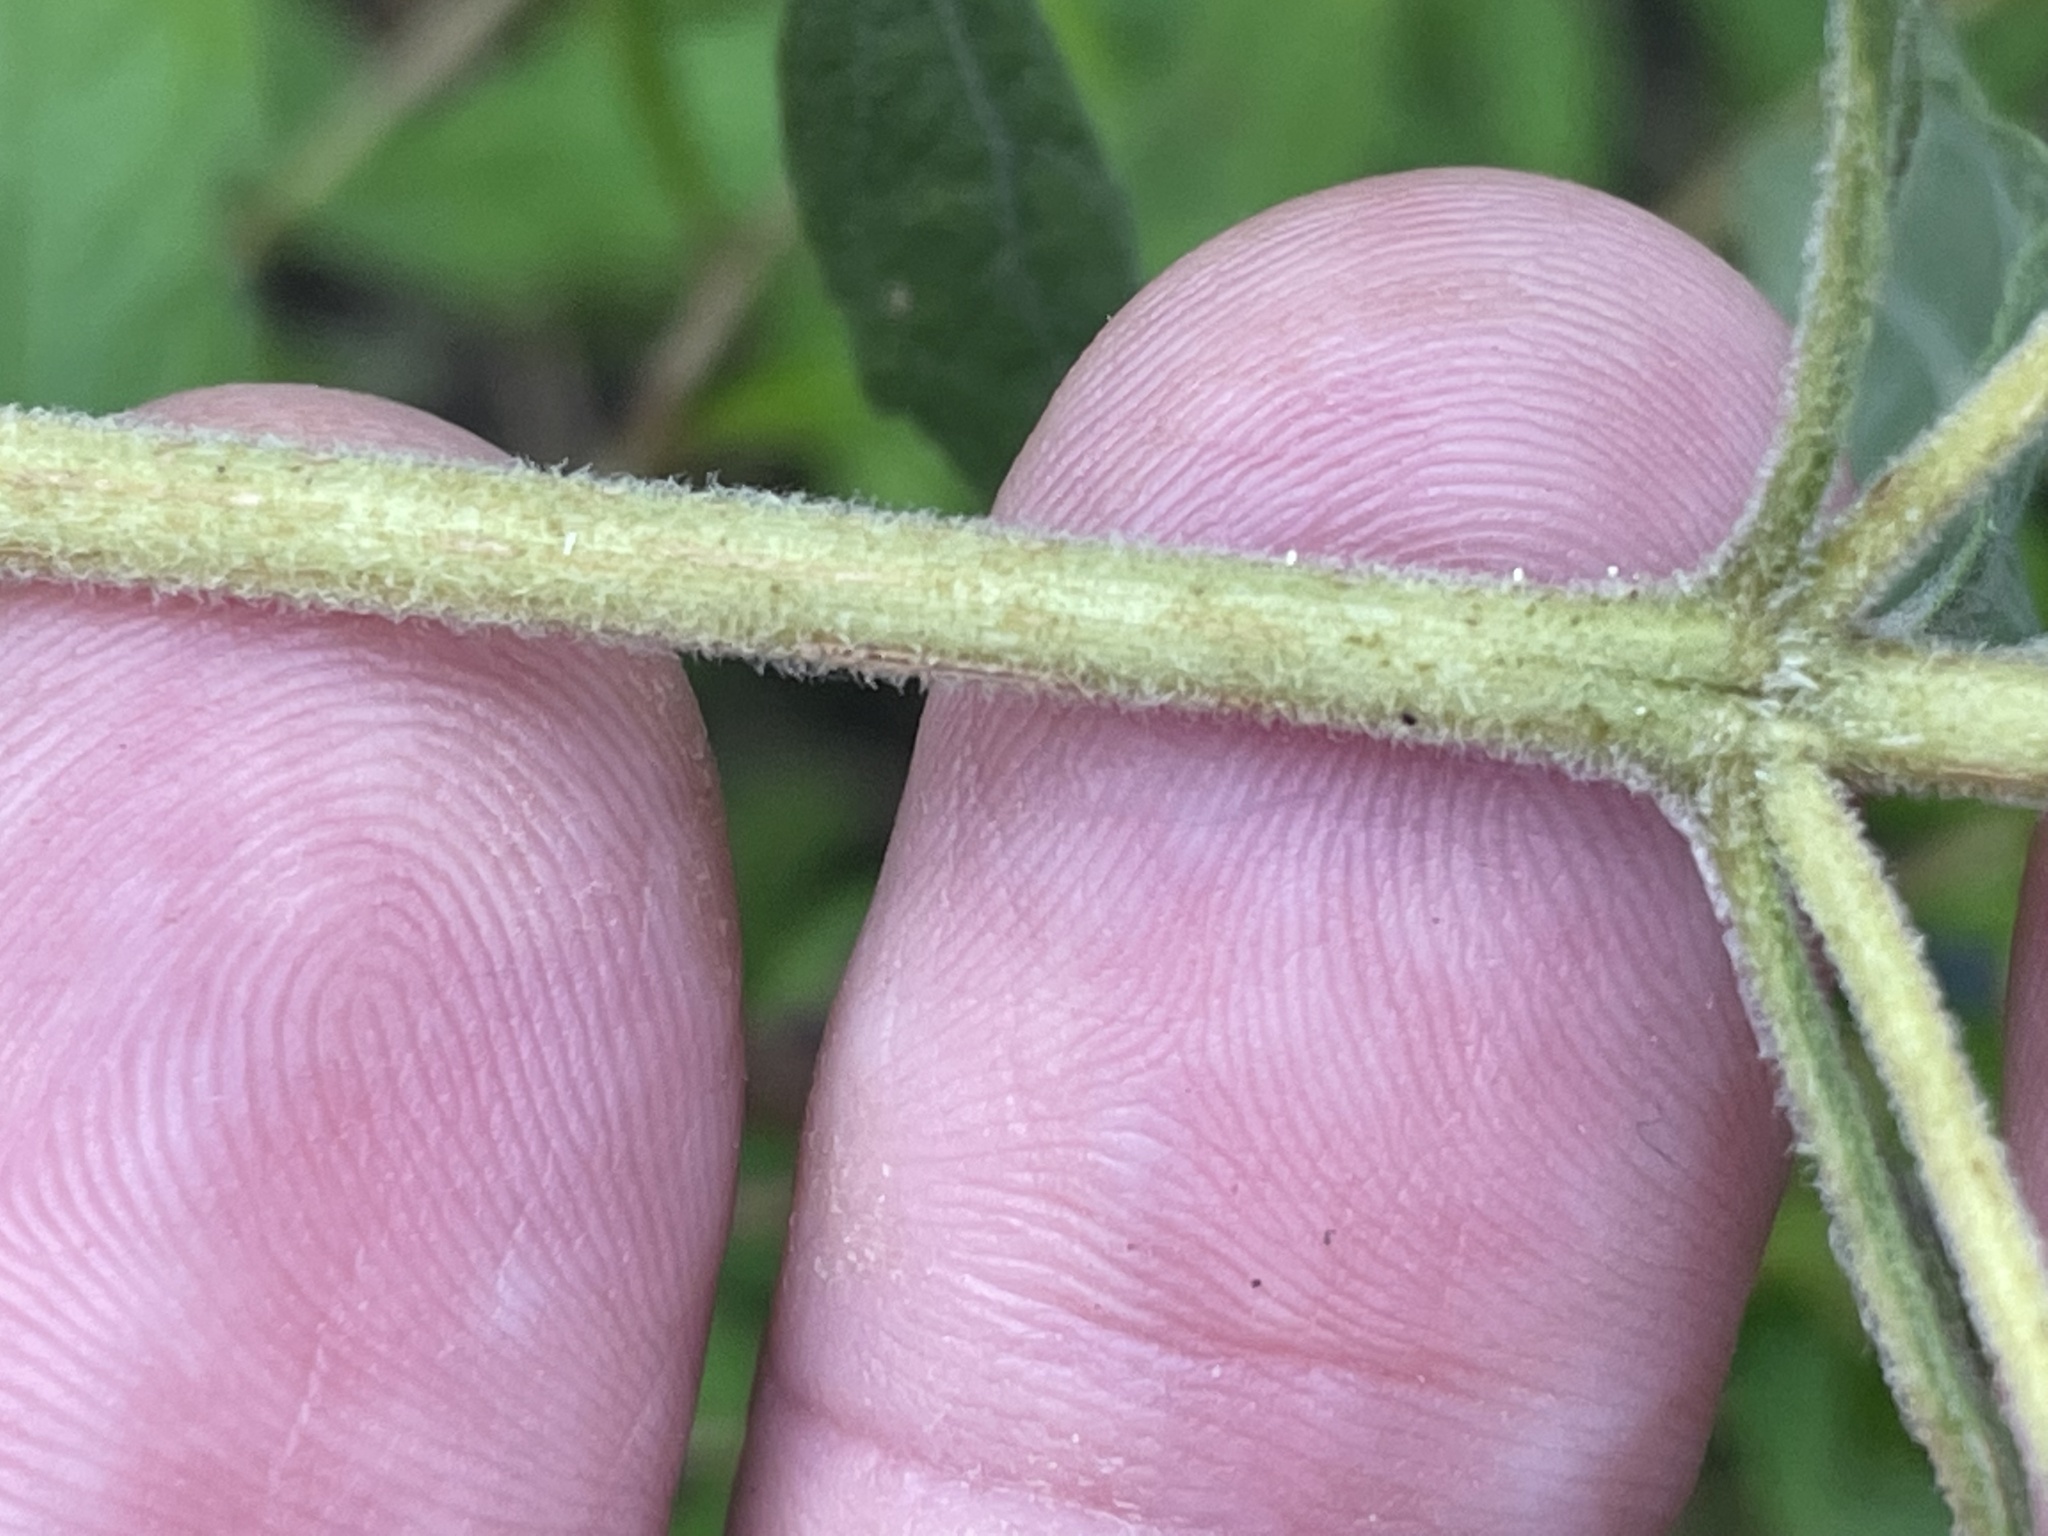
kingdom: Plantae
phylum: Tracheophyta
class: Magnoliopsida
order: Asterales
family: Asteraceae
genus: Eupatorium
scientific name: Eupatorium semiserratum
